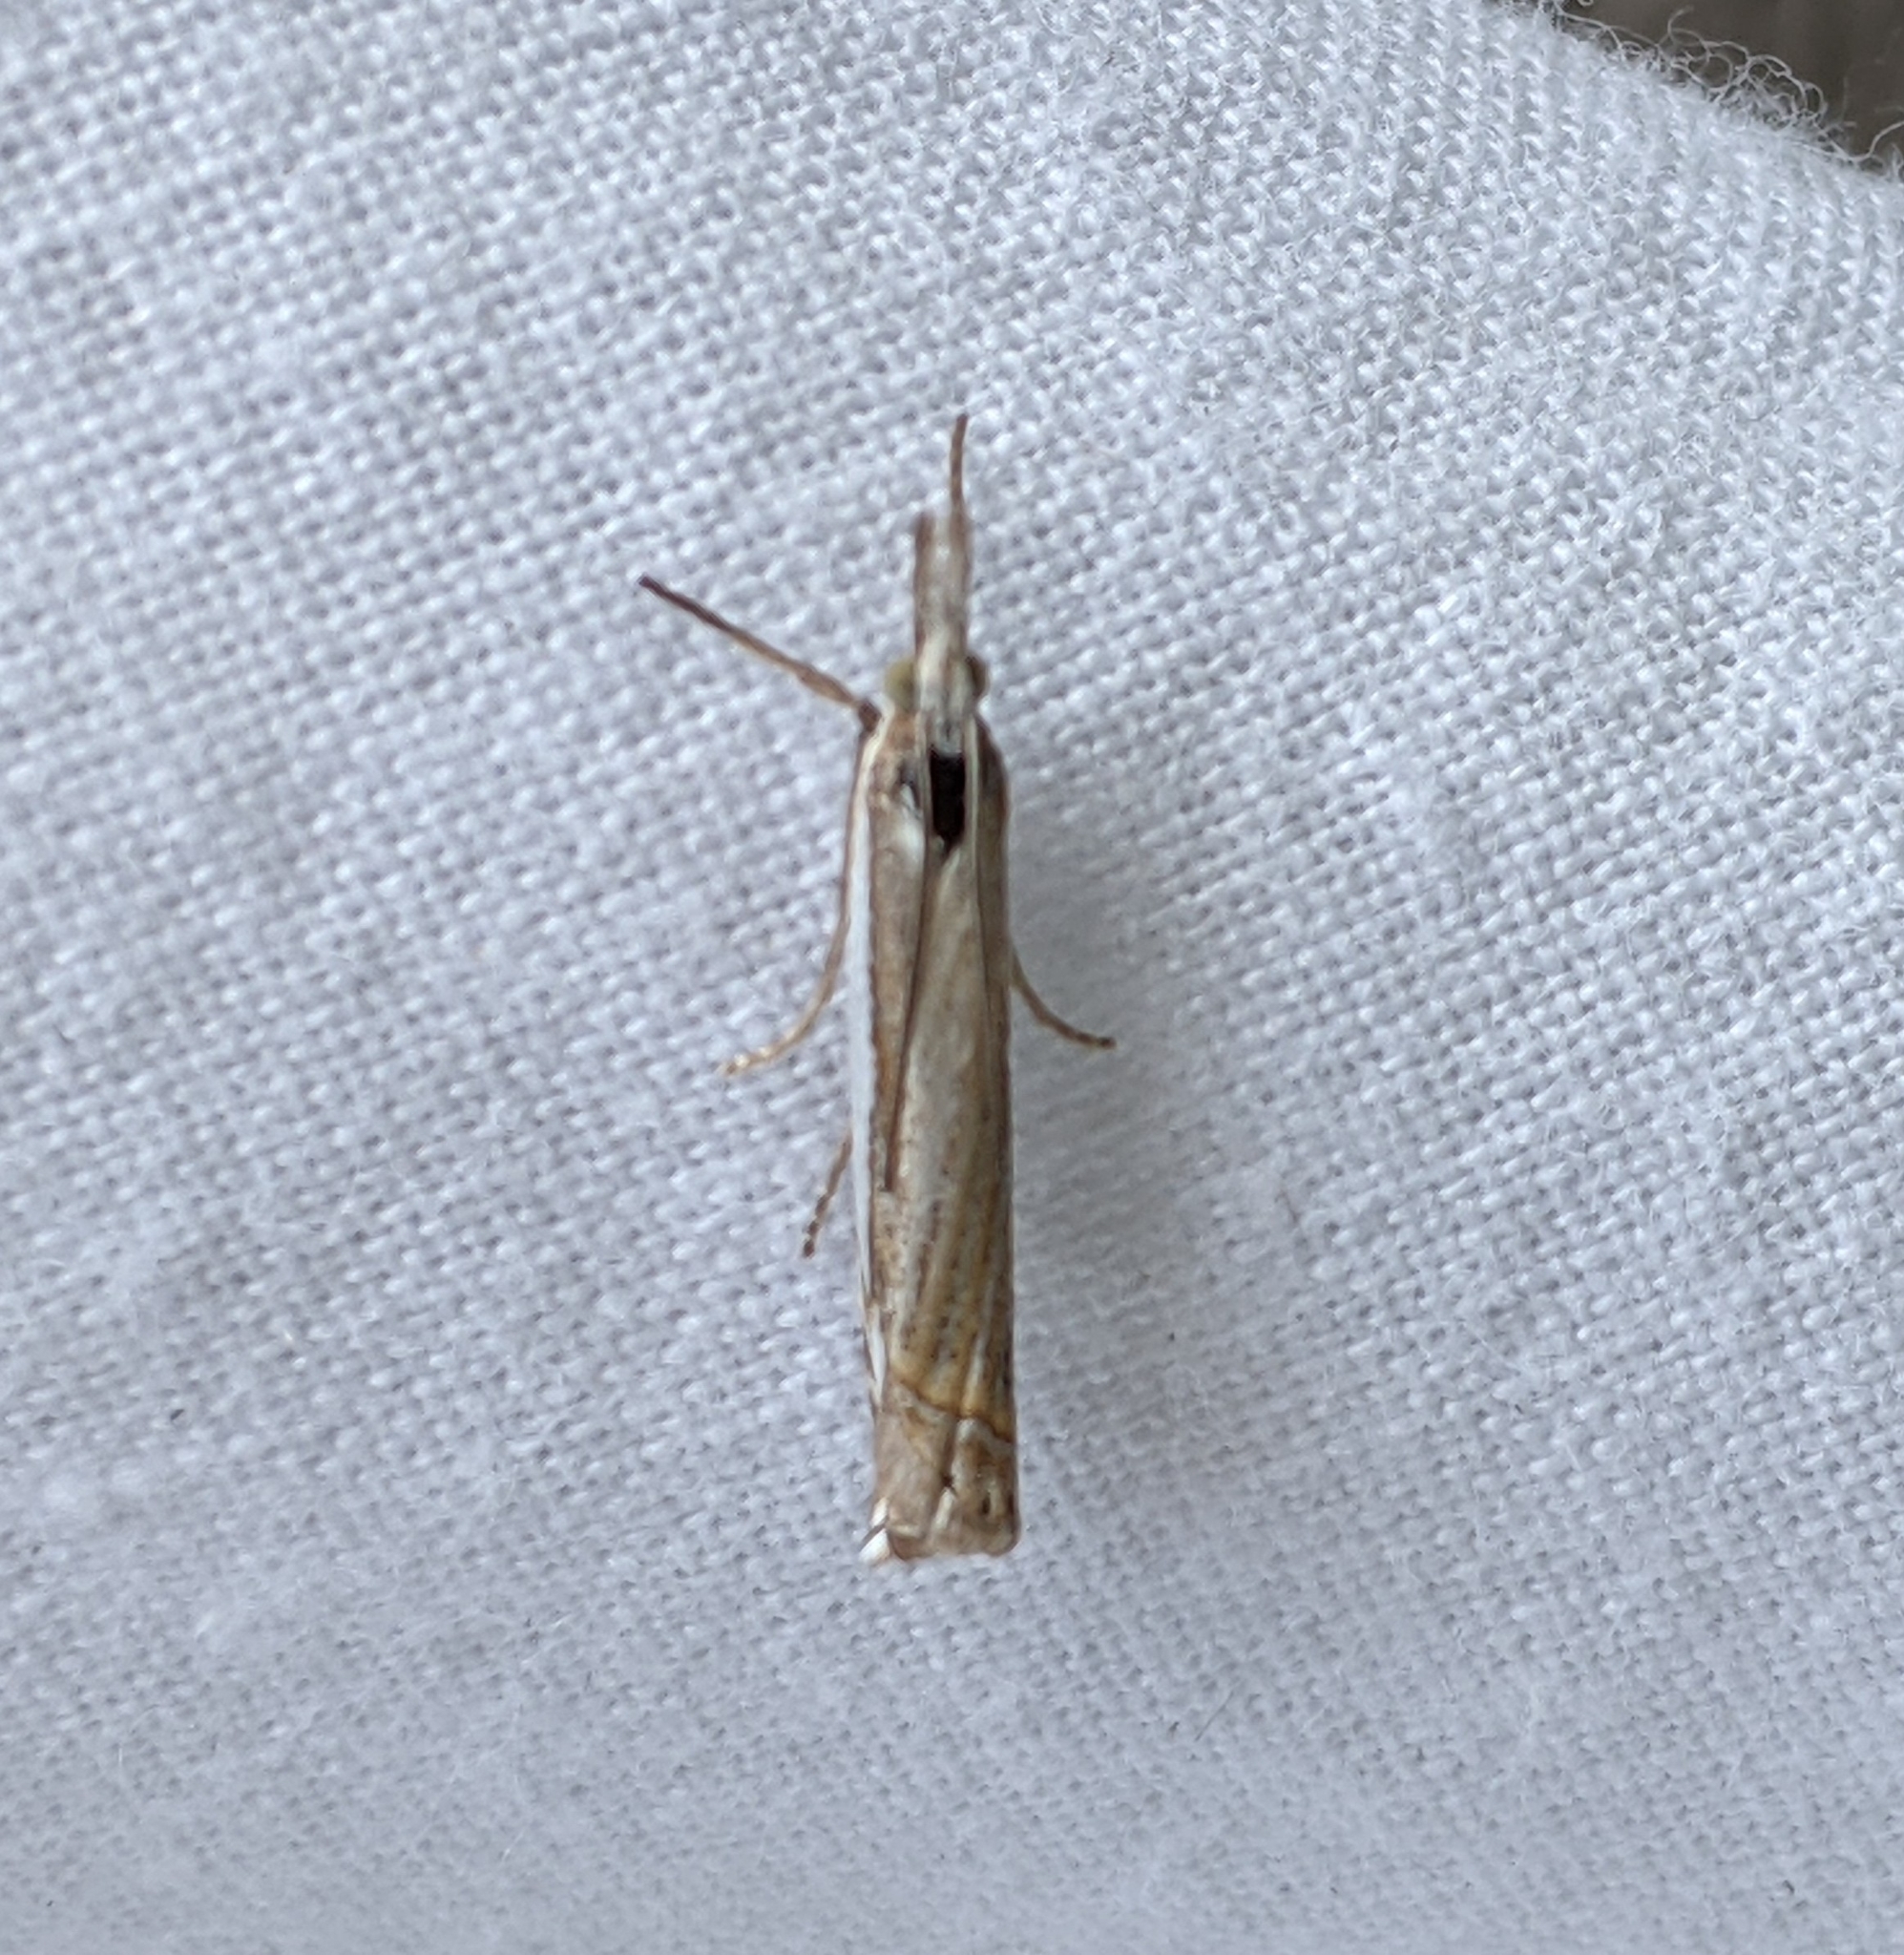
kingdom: Animalia
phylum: Arthropoda
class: Insecta
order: Lepidoptera
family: Crambidae
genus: Crambus
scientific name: Crambus pascuella
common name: Inlaid grass-veneer
